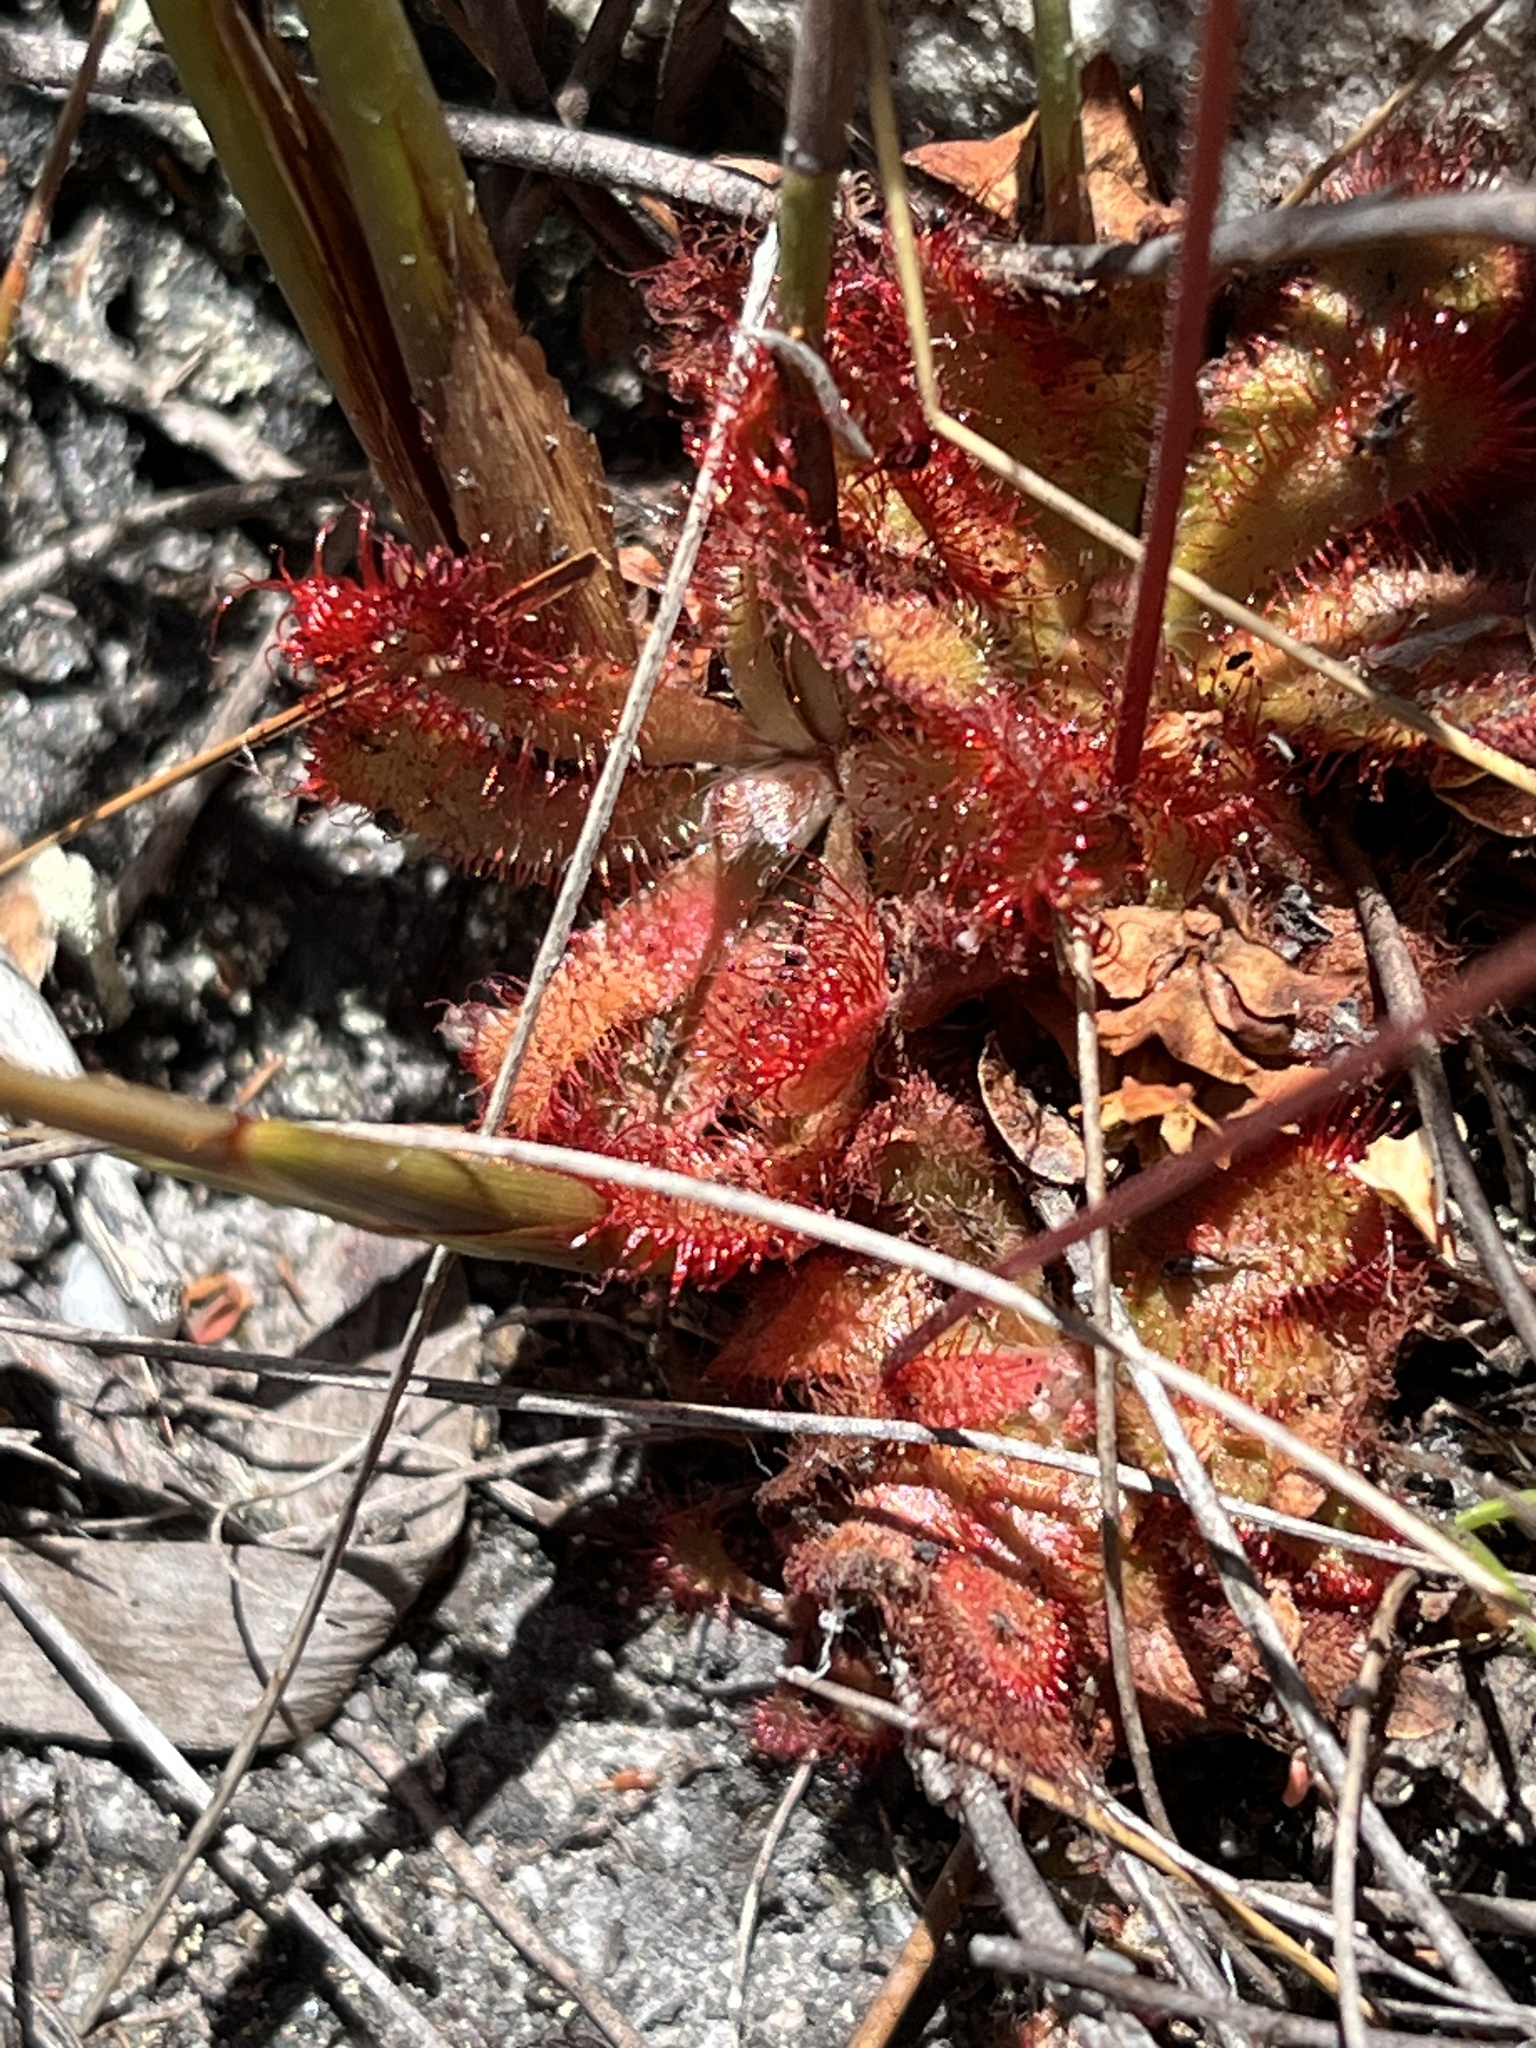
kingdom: Plantae
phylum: Tracheophyta
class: Magnoliopsida
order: Caryophyllales
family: Droseraceae
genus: Drosera
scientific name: Drosera aliciae
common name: Alice sundew
